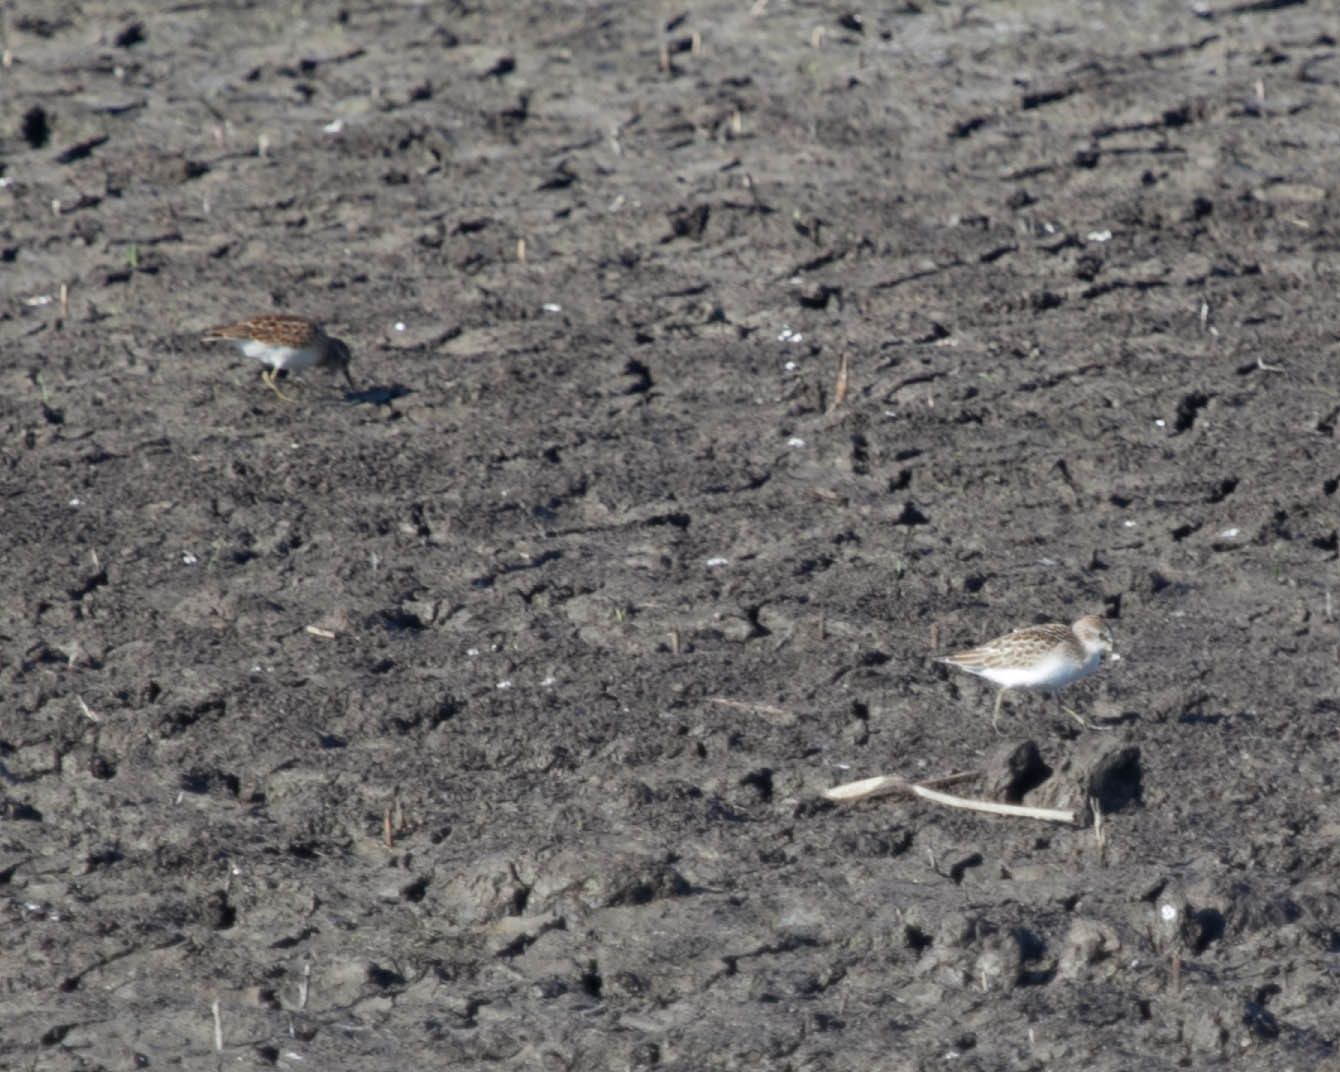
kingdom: Animalia
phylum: Chordata
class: Aves
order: Charadriiformes
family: Scolopacidae
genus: Calidris
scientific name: Calidris minutilla
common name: Least sandpiper
